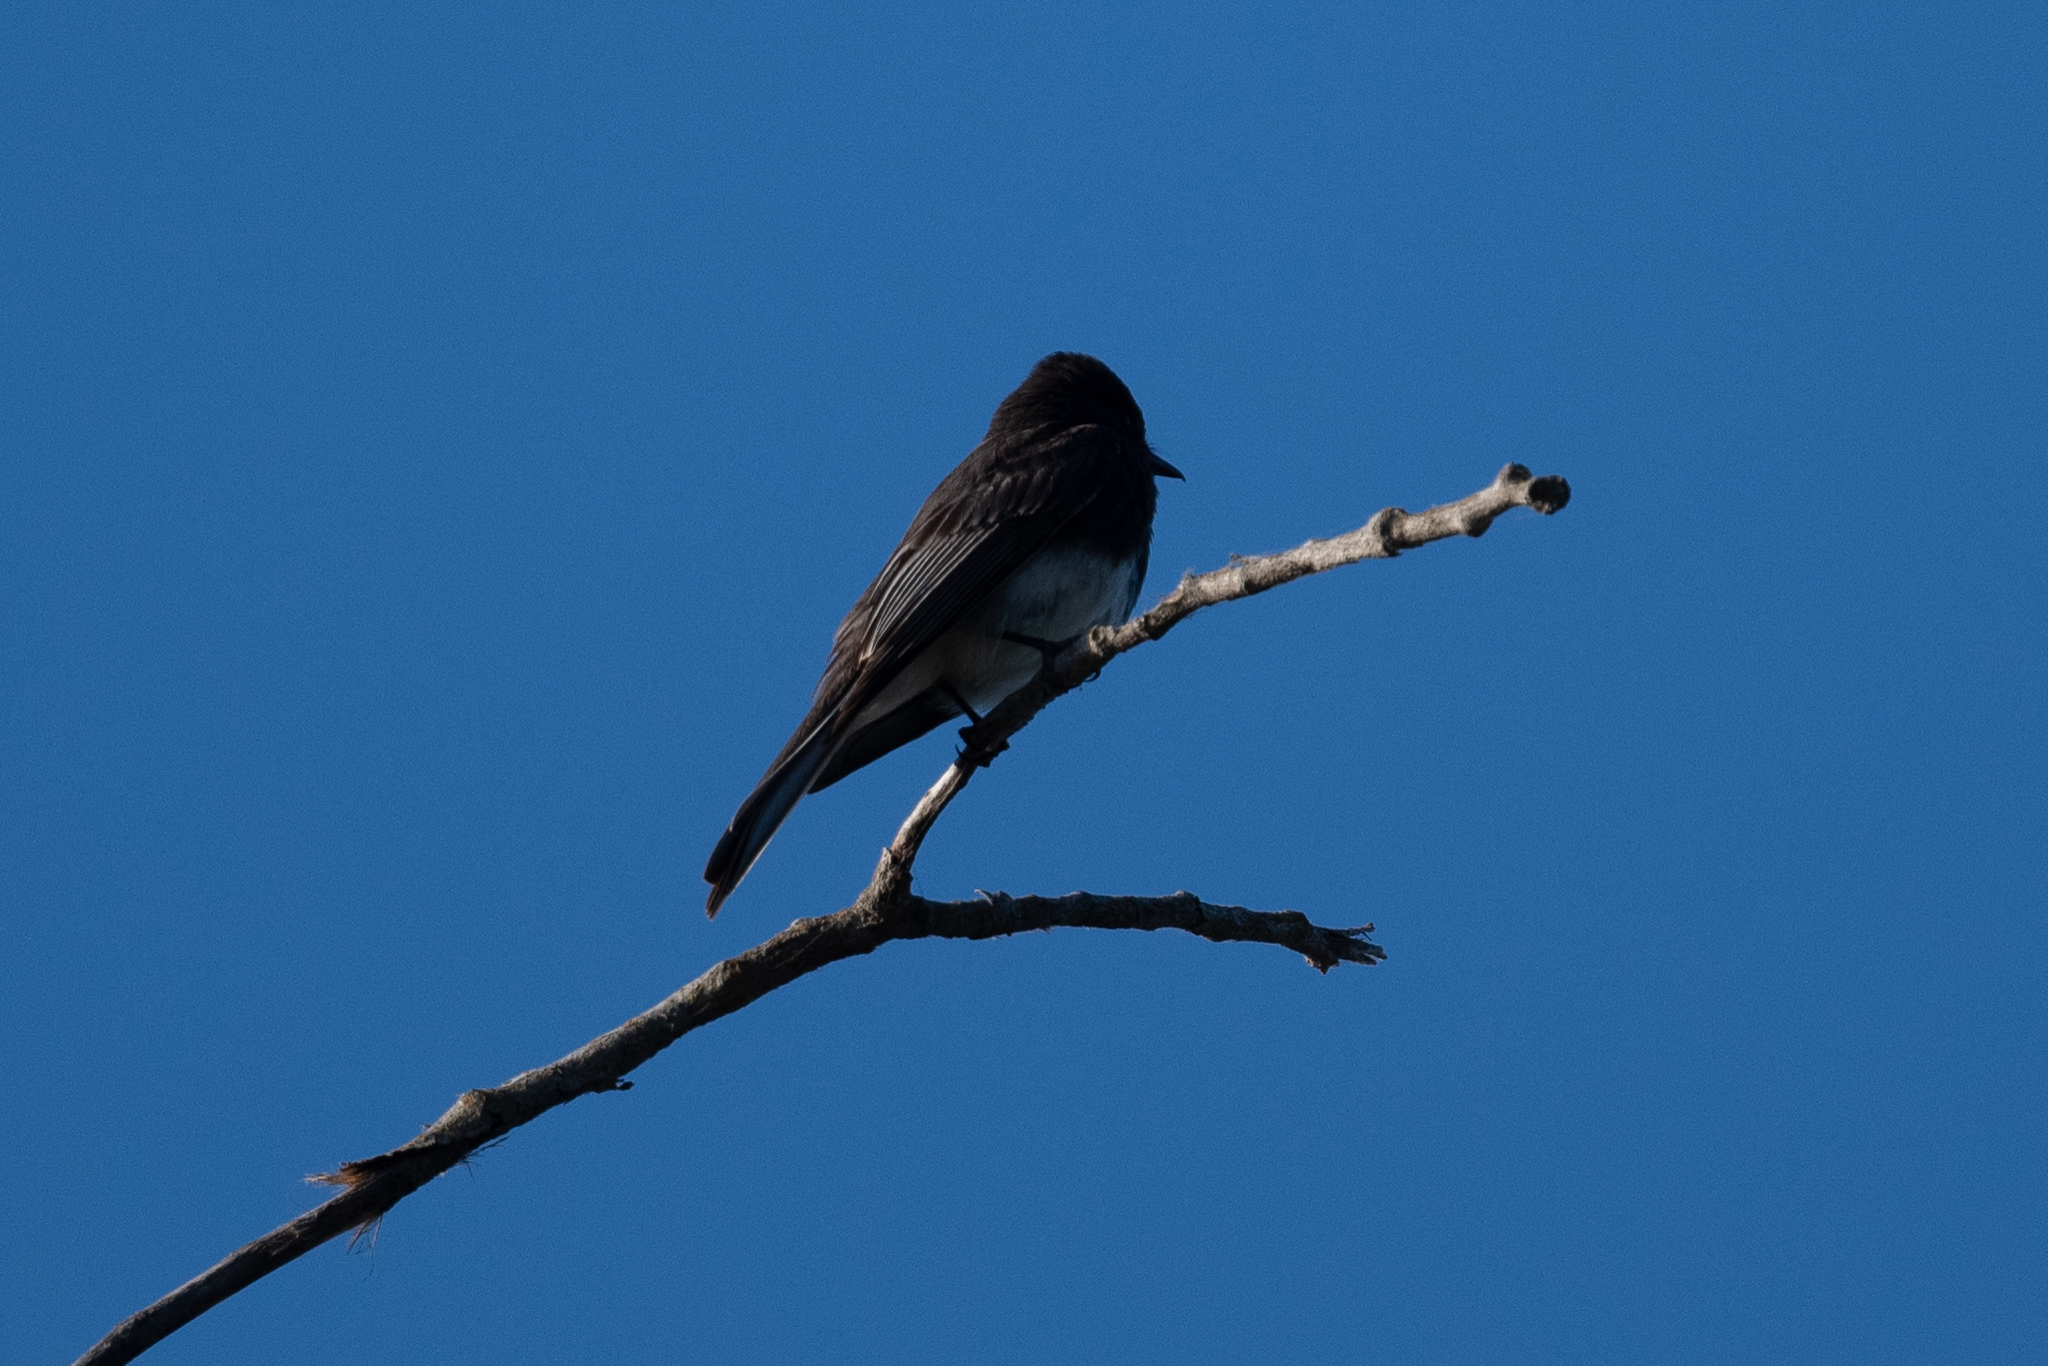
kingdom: Animalia
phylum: Chordata
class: Aves
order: Passeriformes
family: Tyrannidae
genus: Sayornis
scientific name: Sayornis nigricans
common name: Black phoebe
